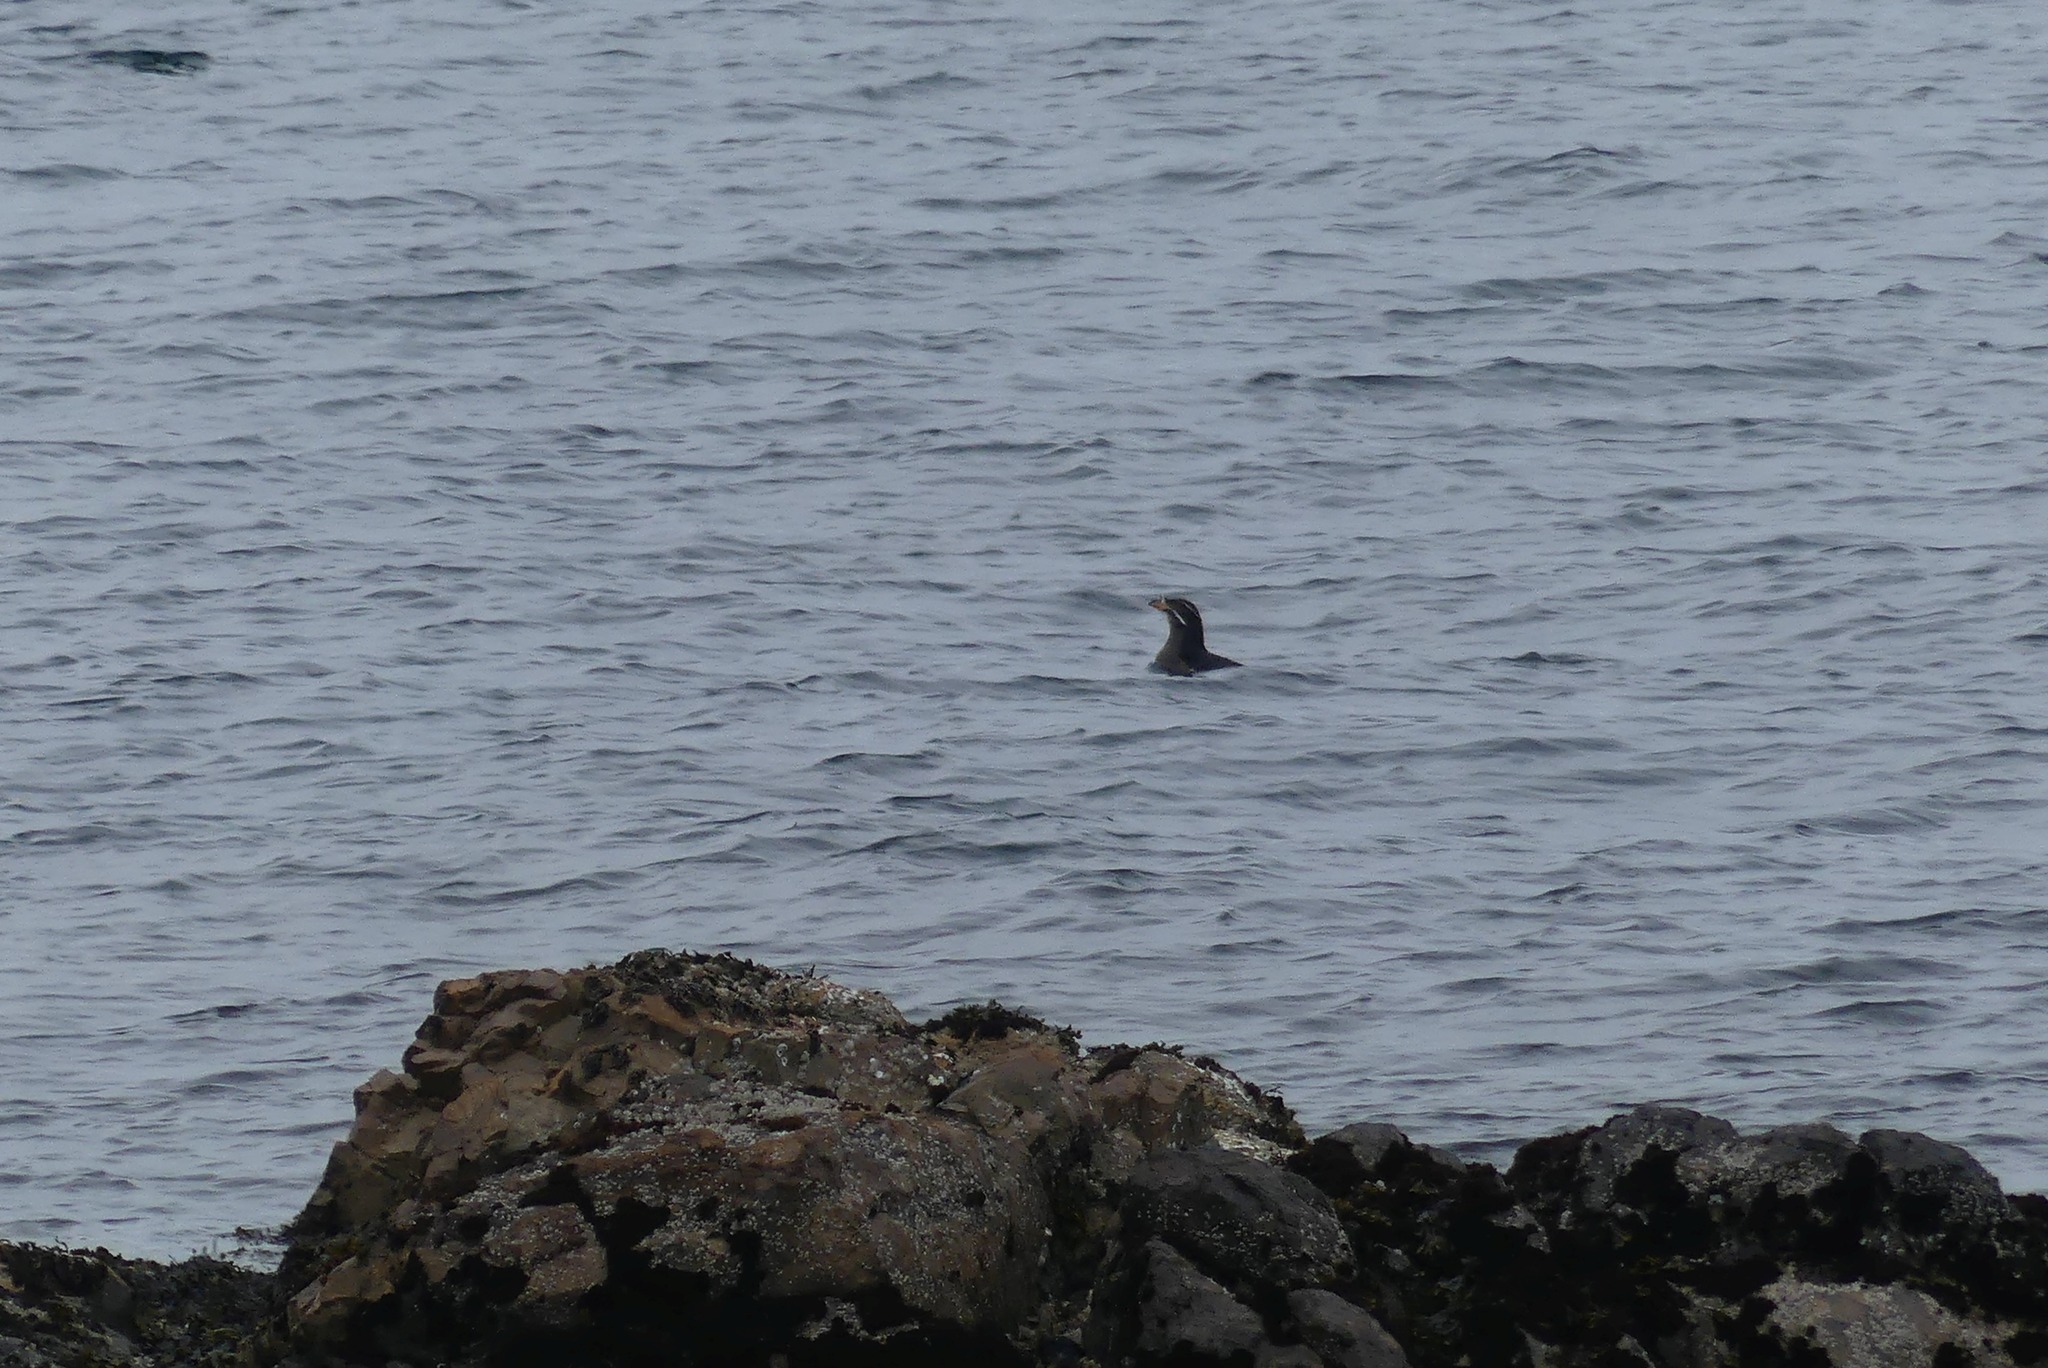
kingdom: Animalia
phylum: Chordata
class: Aves
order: Charadriiformes
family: Alcidae
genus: Cerorhinca
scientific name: Cerorhinca monocerata
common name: Rhinoceros auklet
